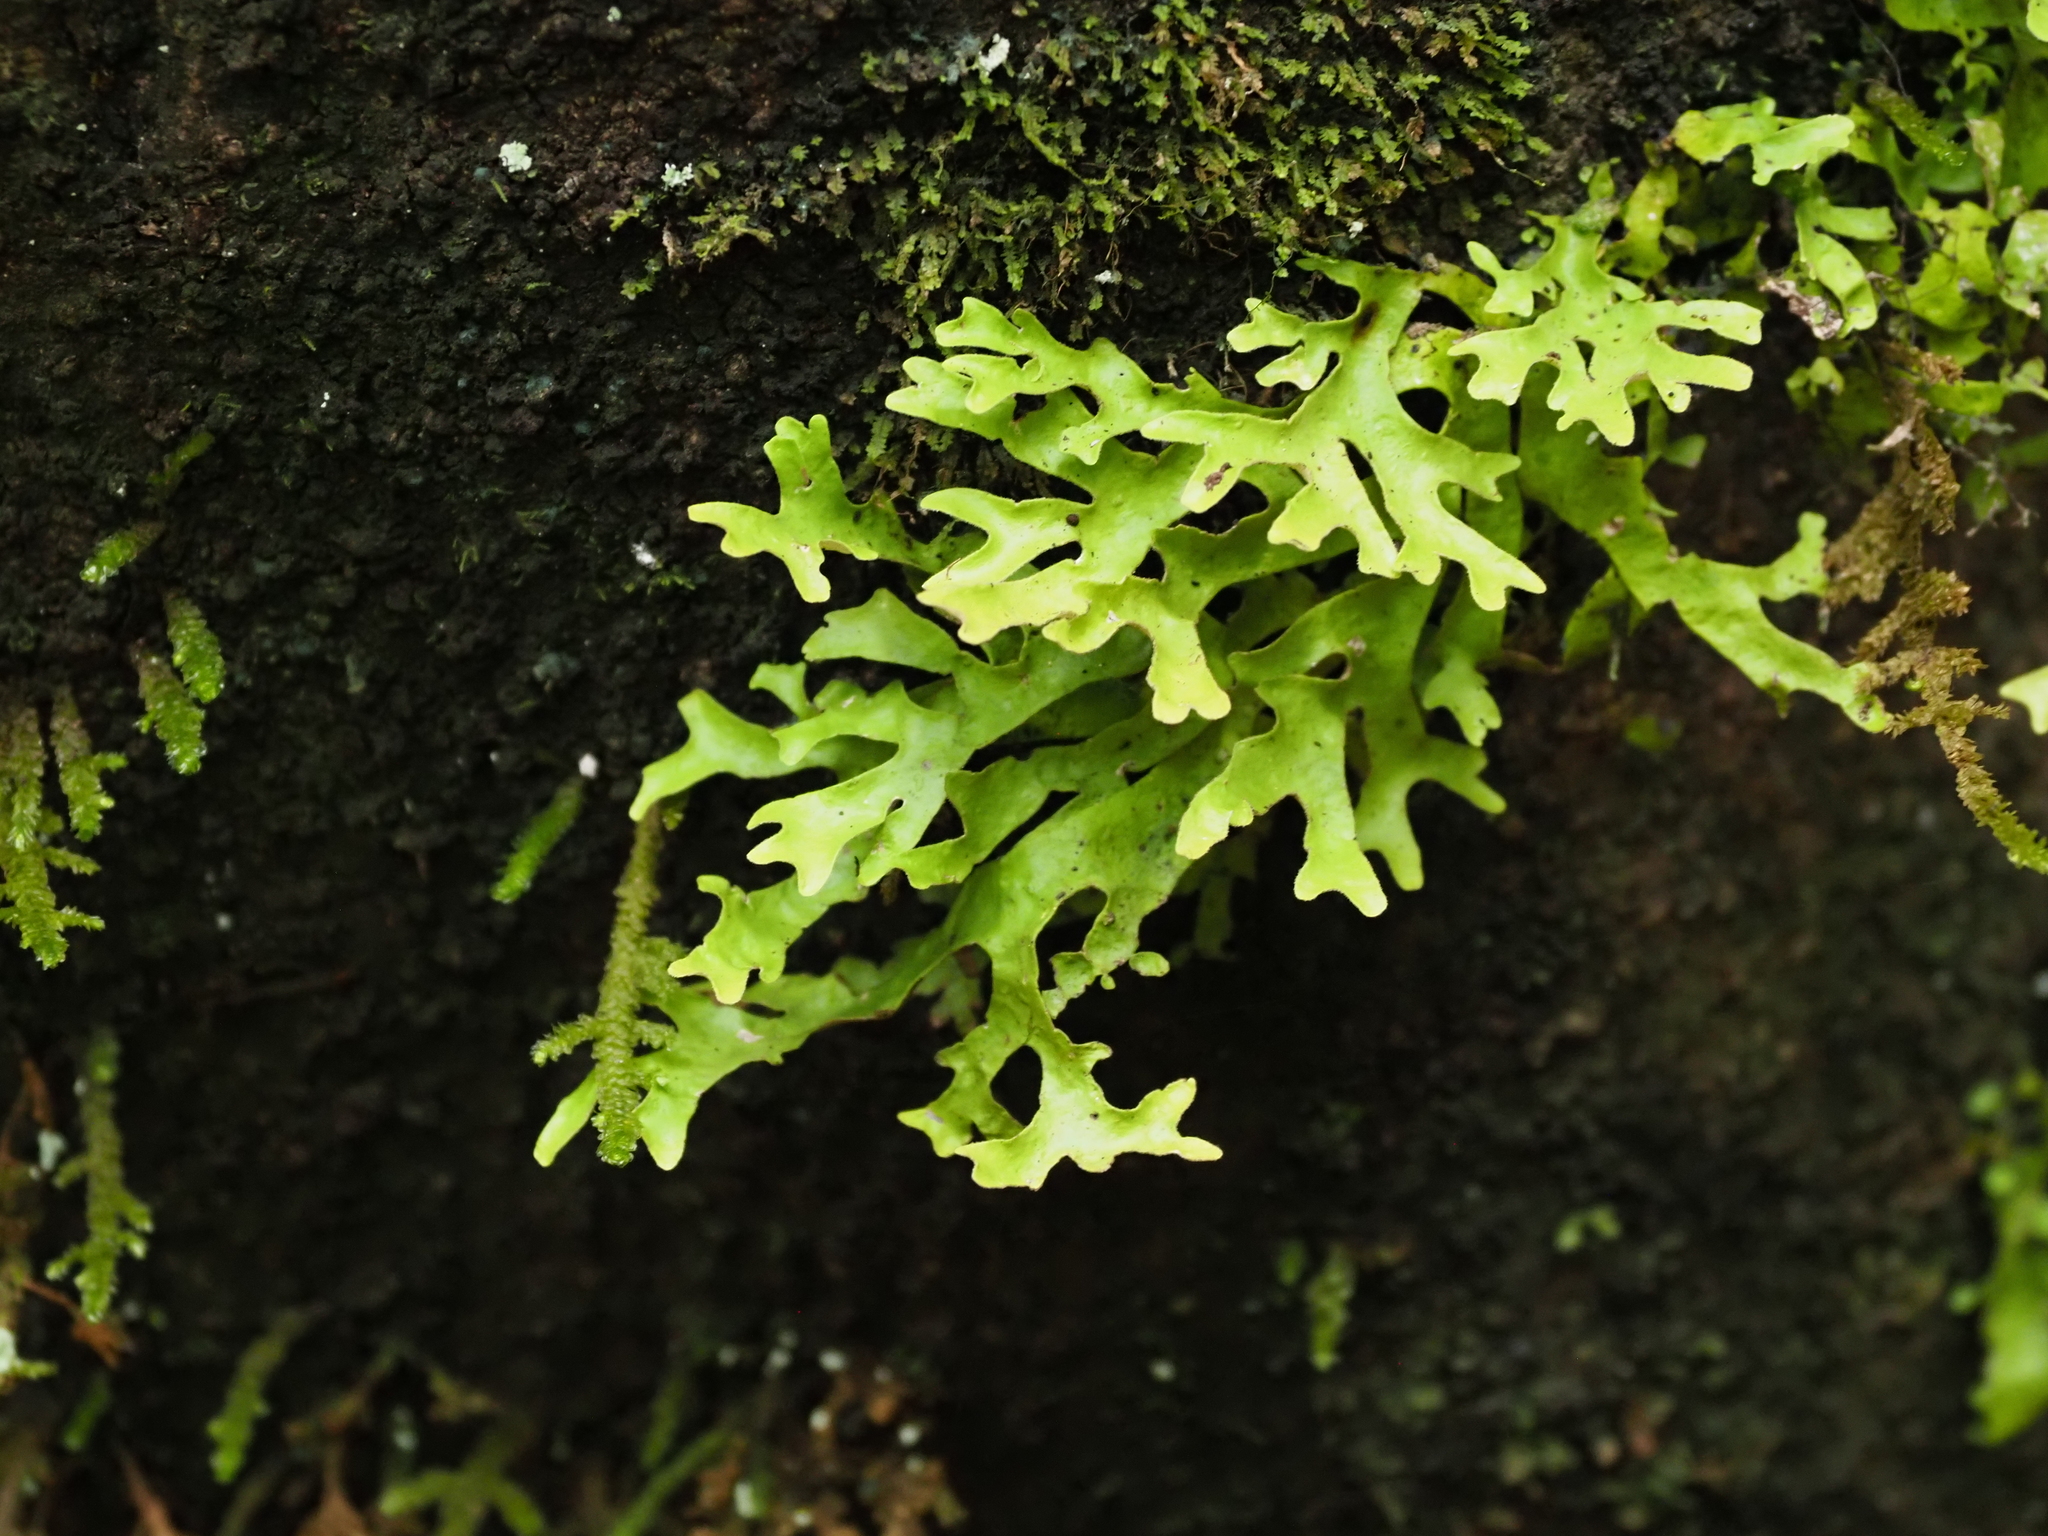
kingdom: Fungi
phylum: Ascomycota
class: Lecanoromycetes
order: Peltigerales
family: Lobariaceae
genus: Sticta
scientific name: Sticta canariensis
